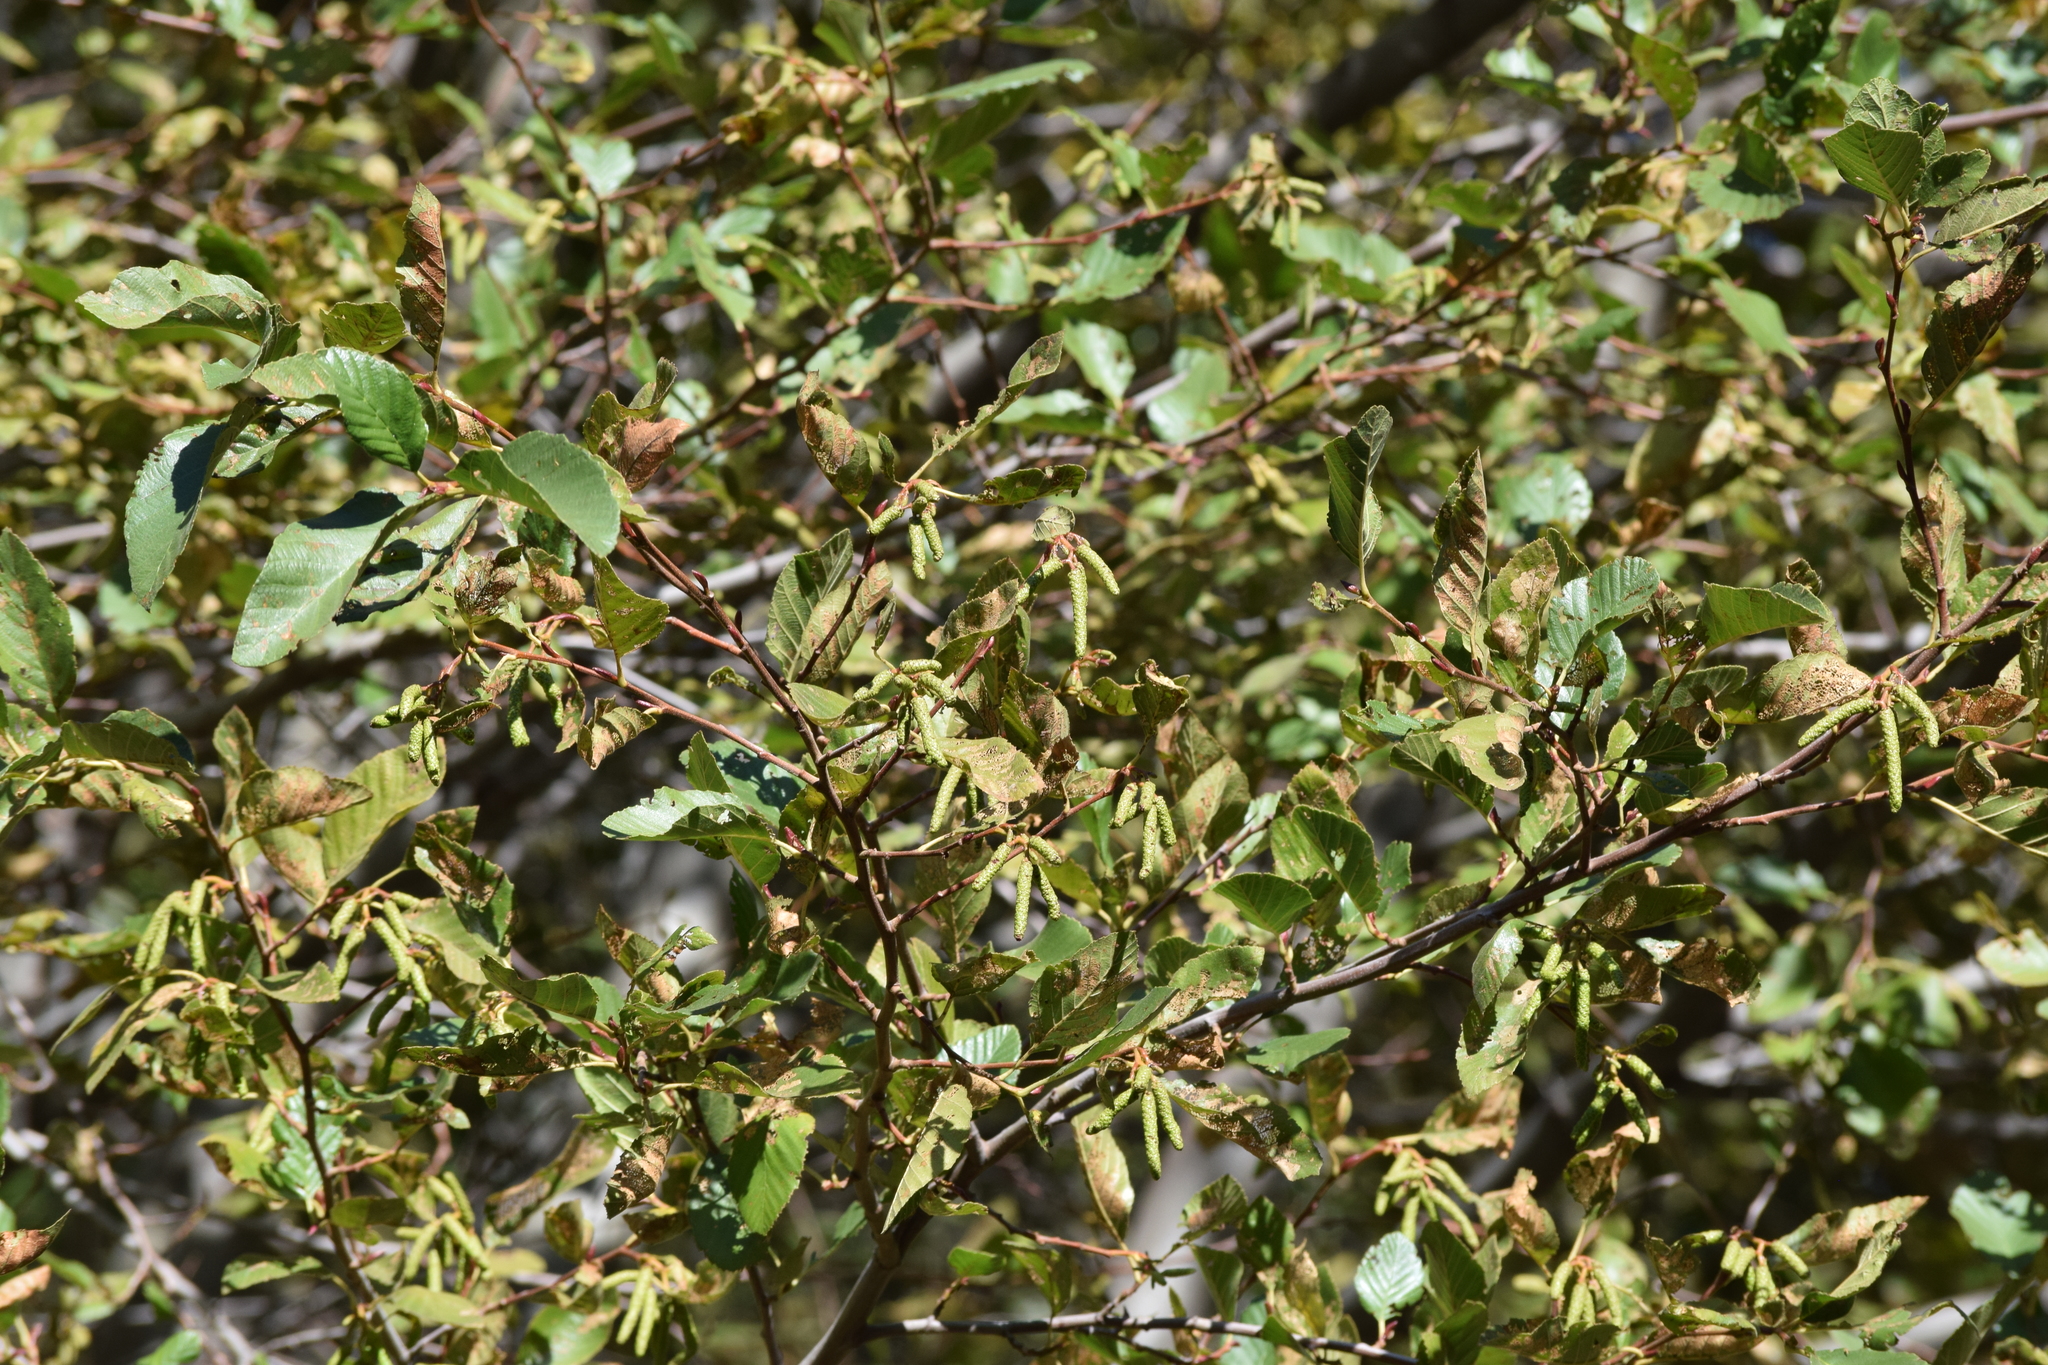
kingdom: Plantae
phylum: Tracheophyta
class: Magnoliopsida
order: Fagales
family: Betulaceae
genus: Alnus
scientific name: Alnus rhombifolia
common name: California alder
